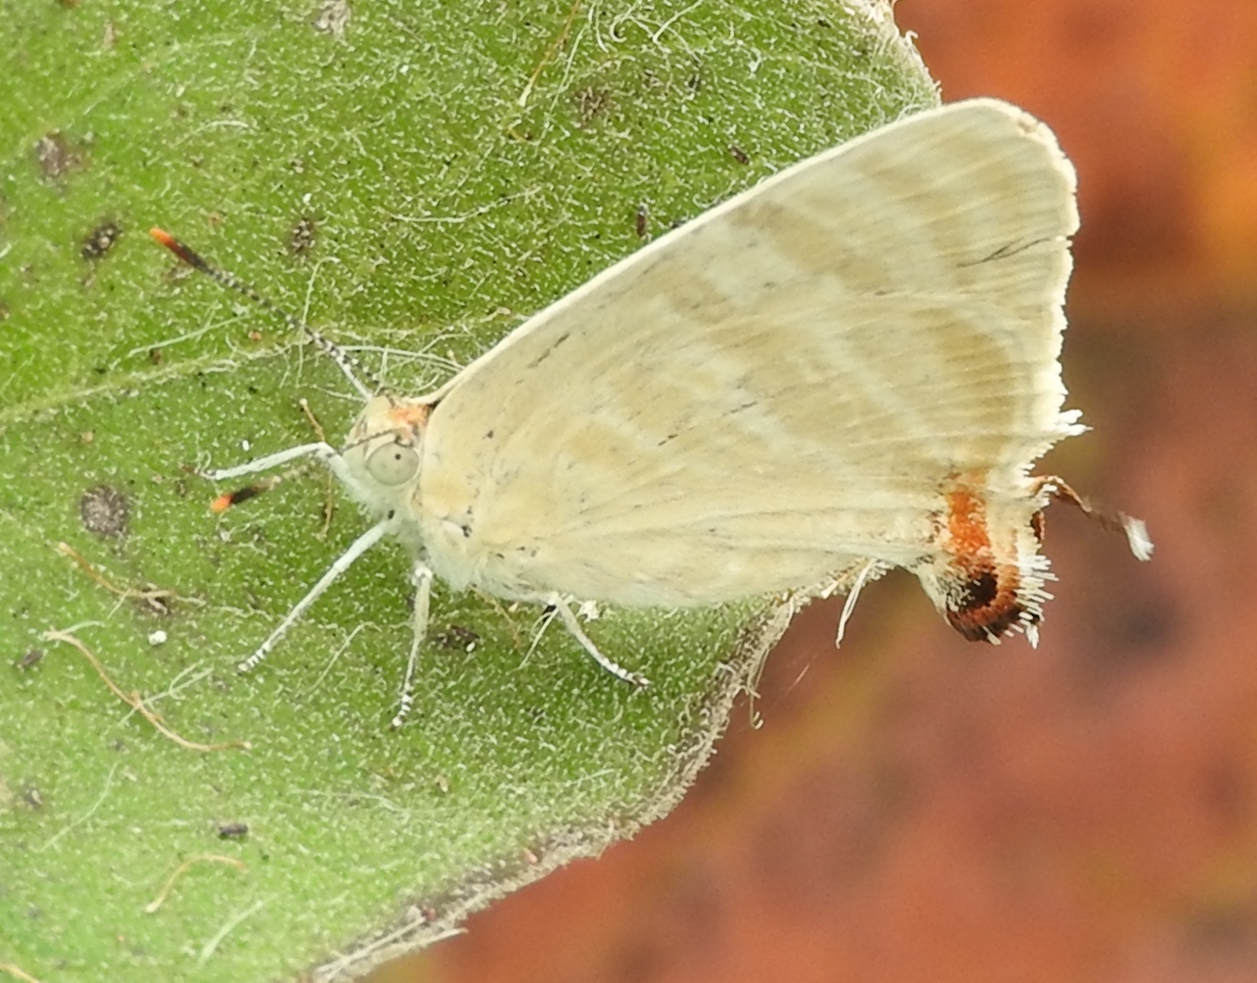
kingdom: Animalia
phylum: Arthropoda
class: Insecta
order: Lepidoptera
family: Lycaenidae
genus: Dolymorpha
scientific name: Dolymorpha jada
